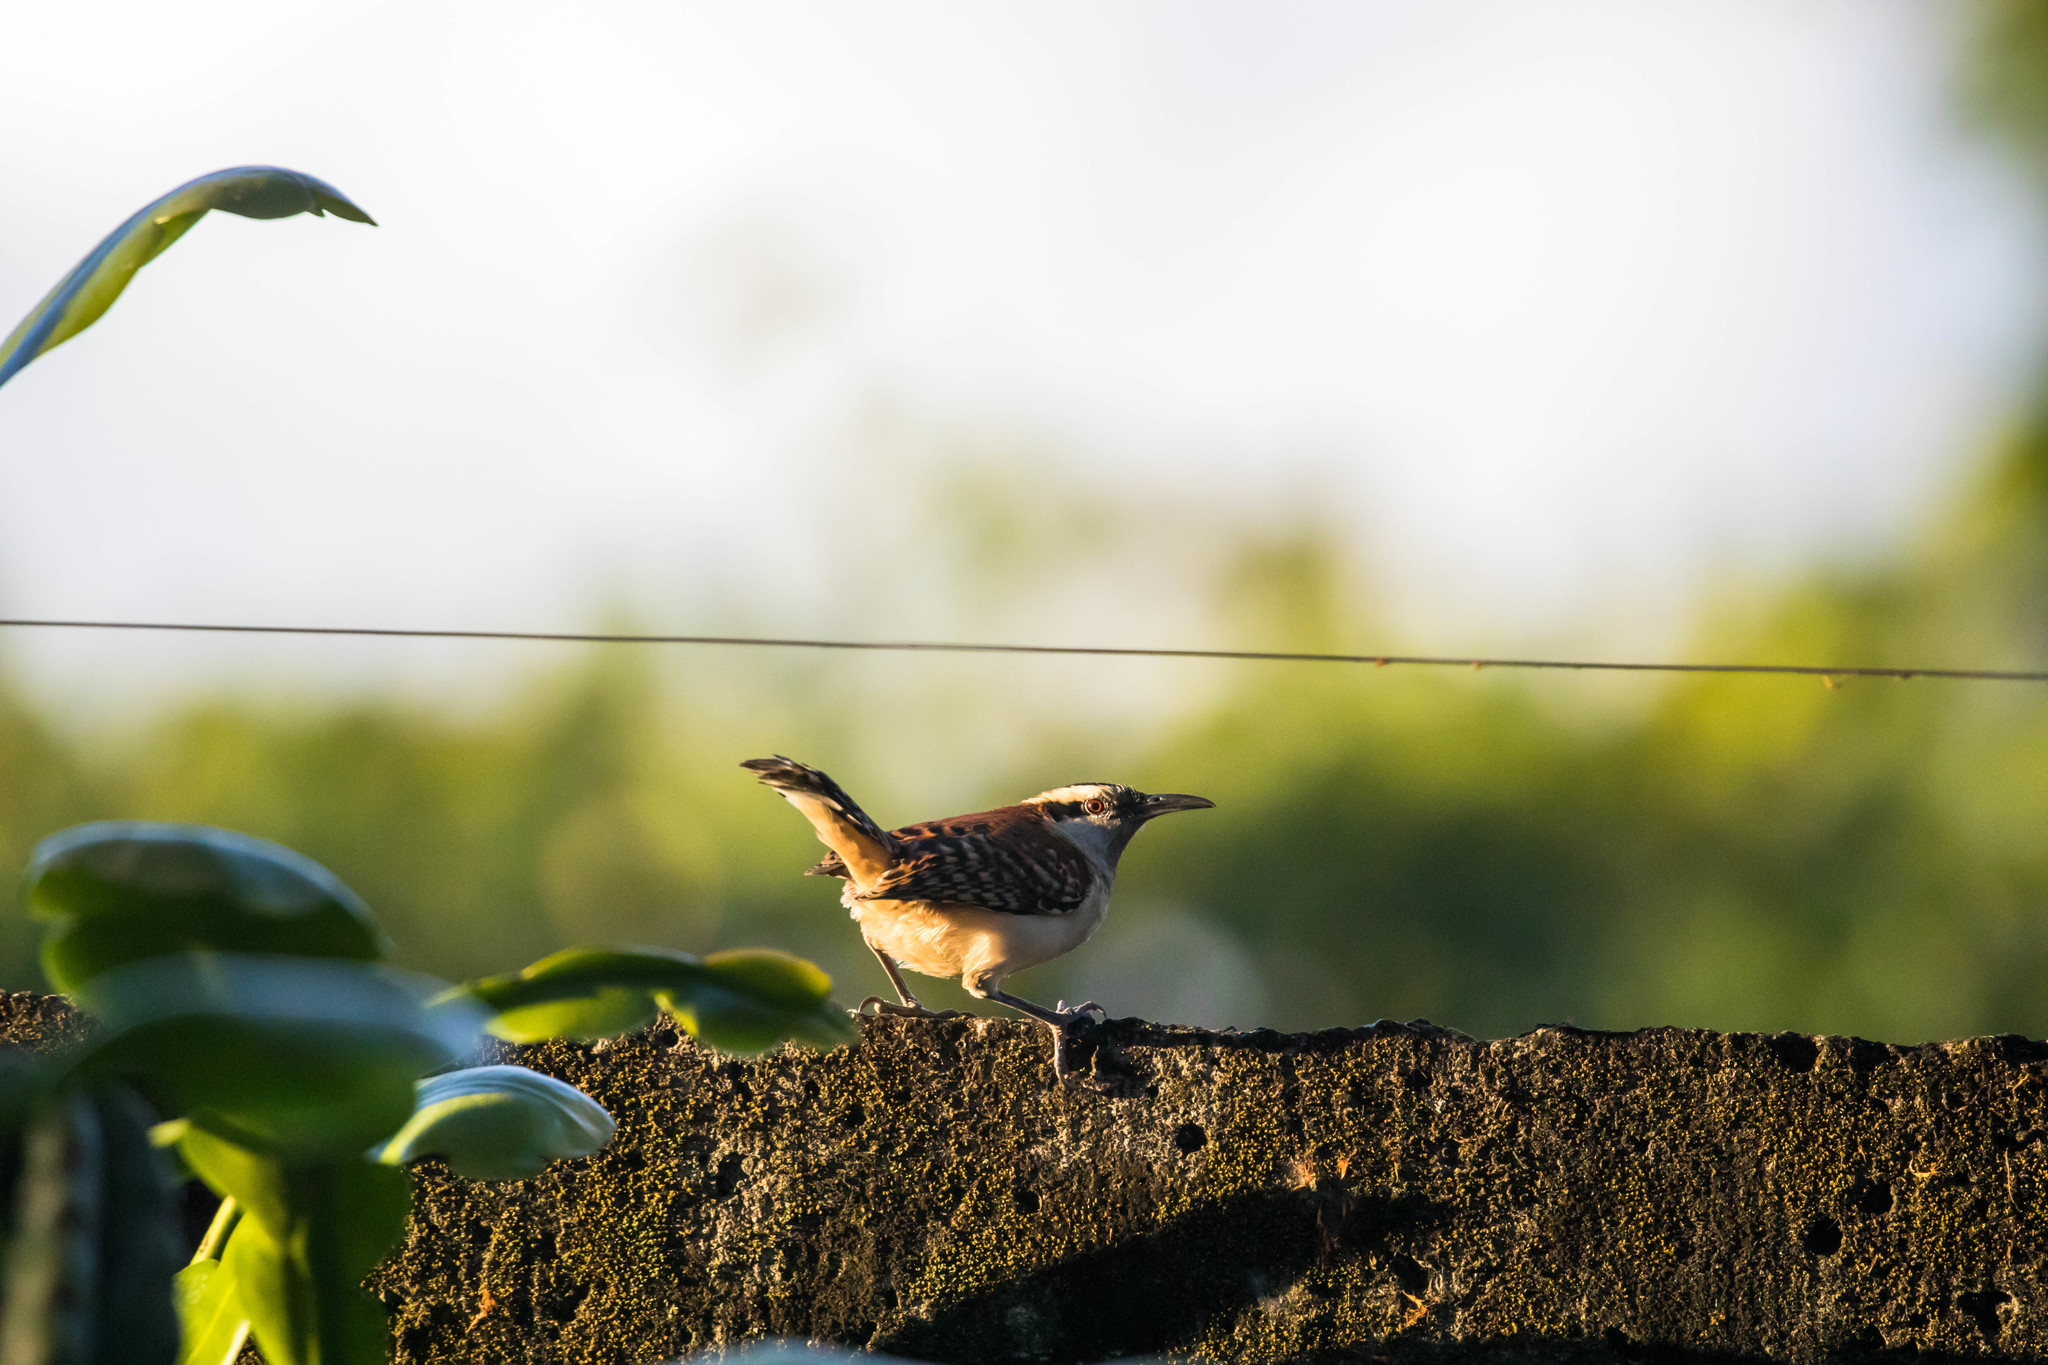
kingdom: Animalia
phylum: Chordata
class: Aves
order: Passeriformes
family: Troglodytidae
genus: Campylorhynchus
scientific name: Campylorhynchus rufinucha
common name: Rufous-naped wren
